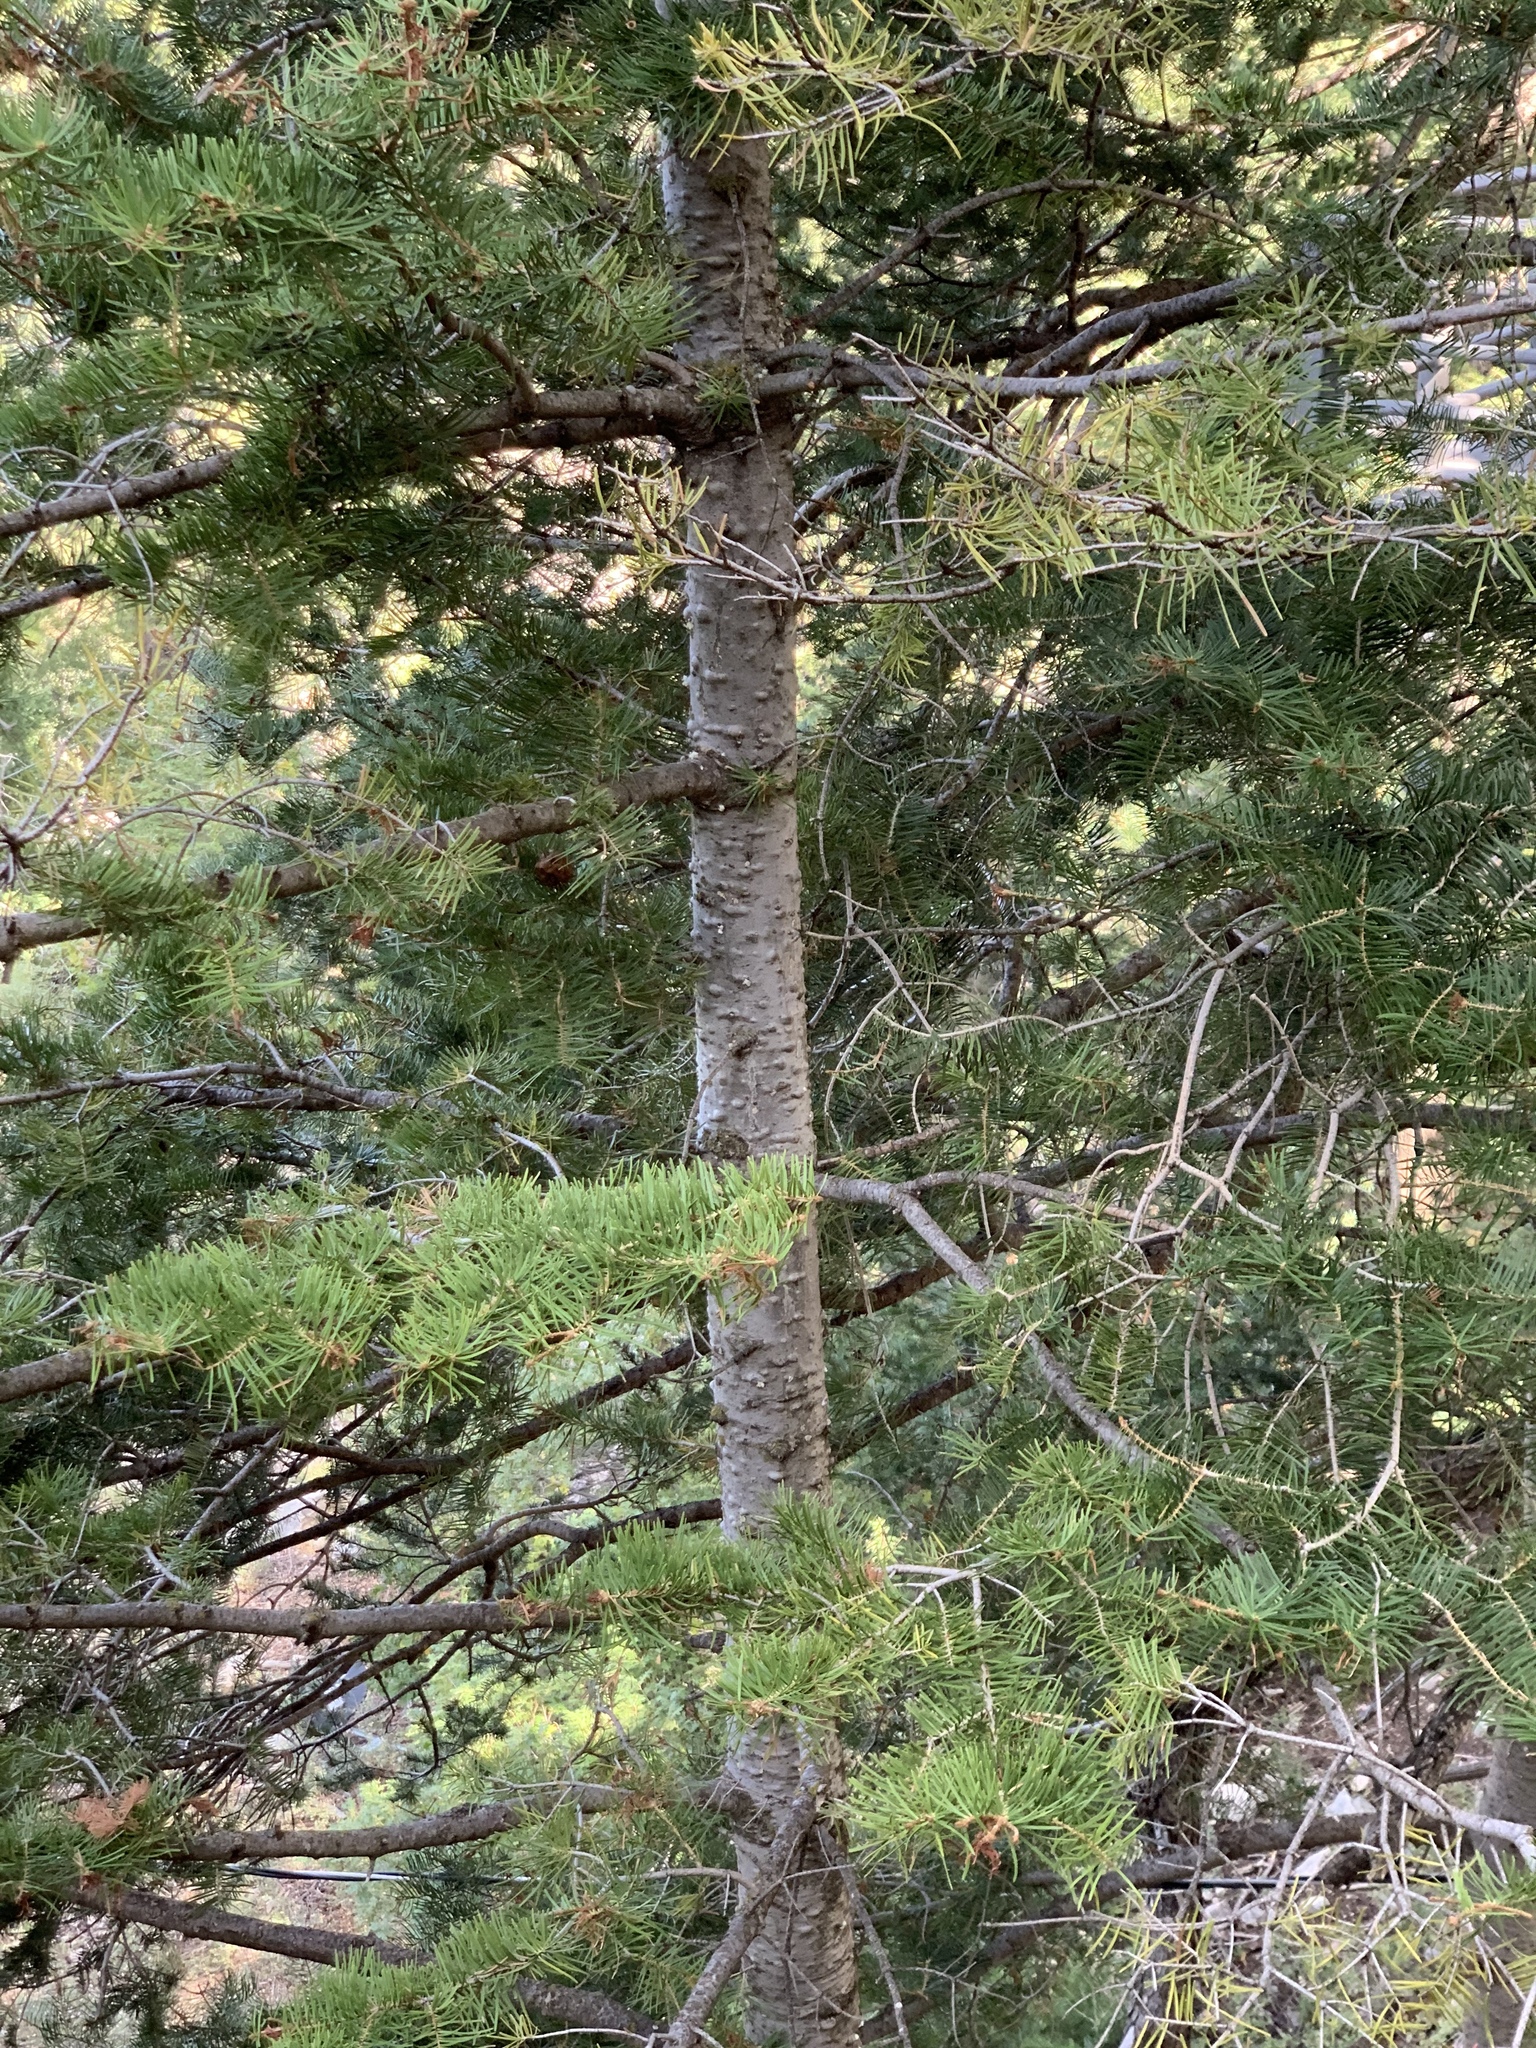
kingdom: Plantae
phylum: Tracheophyta
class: Pinopsida
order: Pinales
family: Pinaceae
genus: Abies
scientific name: Abies concolor
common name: Colorado fir
